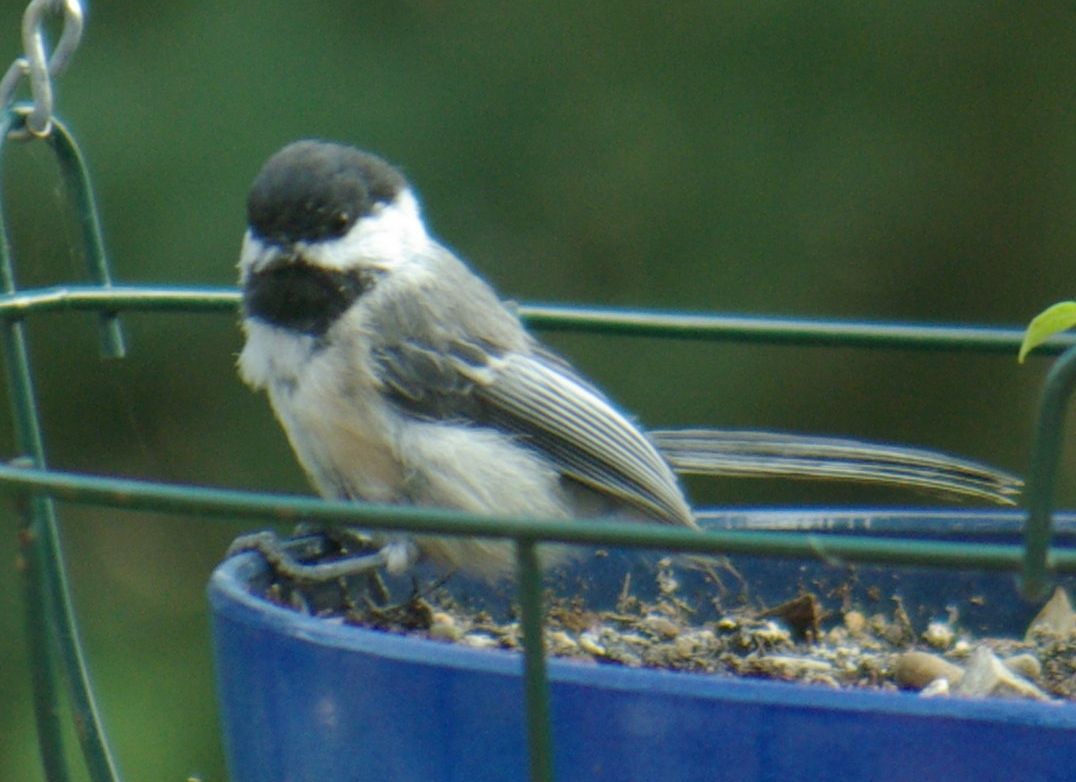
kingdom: Animalia
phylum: Chordata
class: Aves
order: Passeriformes
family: Paridae
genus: Poecile
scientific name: Poecile atricapillus
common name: Black-capped chickadee
